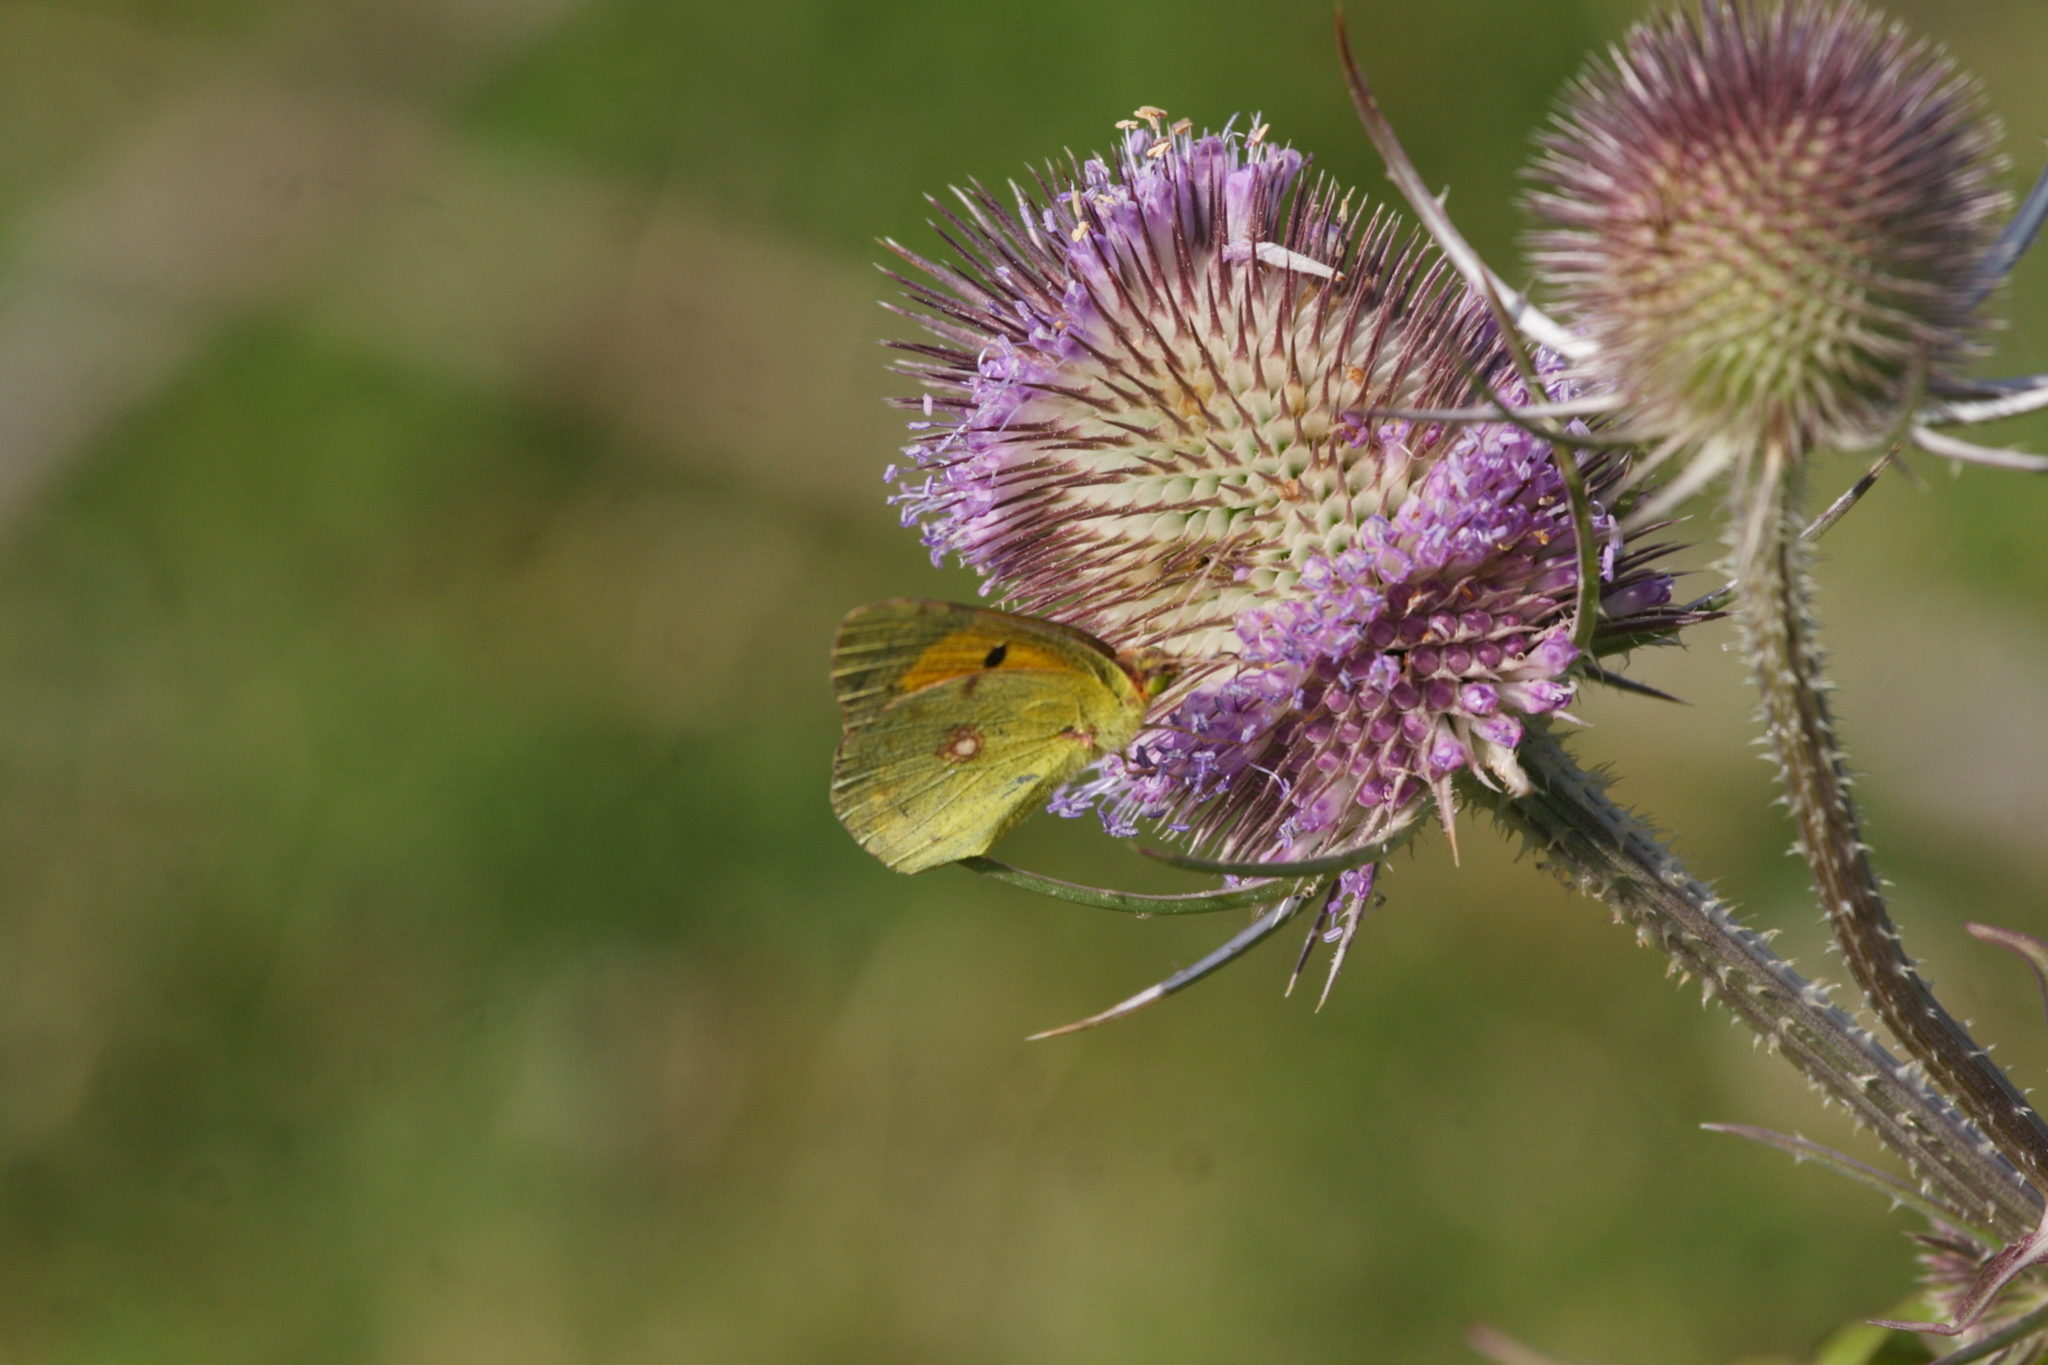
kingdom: Animalia
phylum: Arthropoda
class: Insecta
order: Lepidoptera
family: Pieridae
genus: Colias
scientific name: Colias croceus
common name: Clouded yellow
